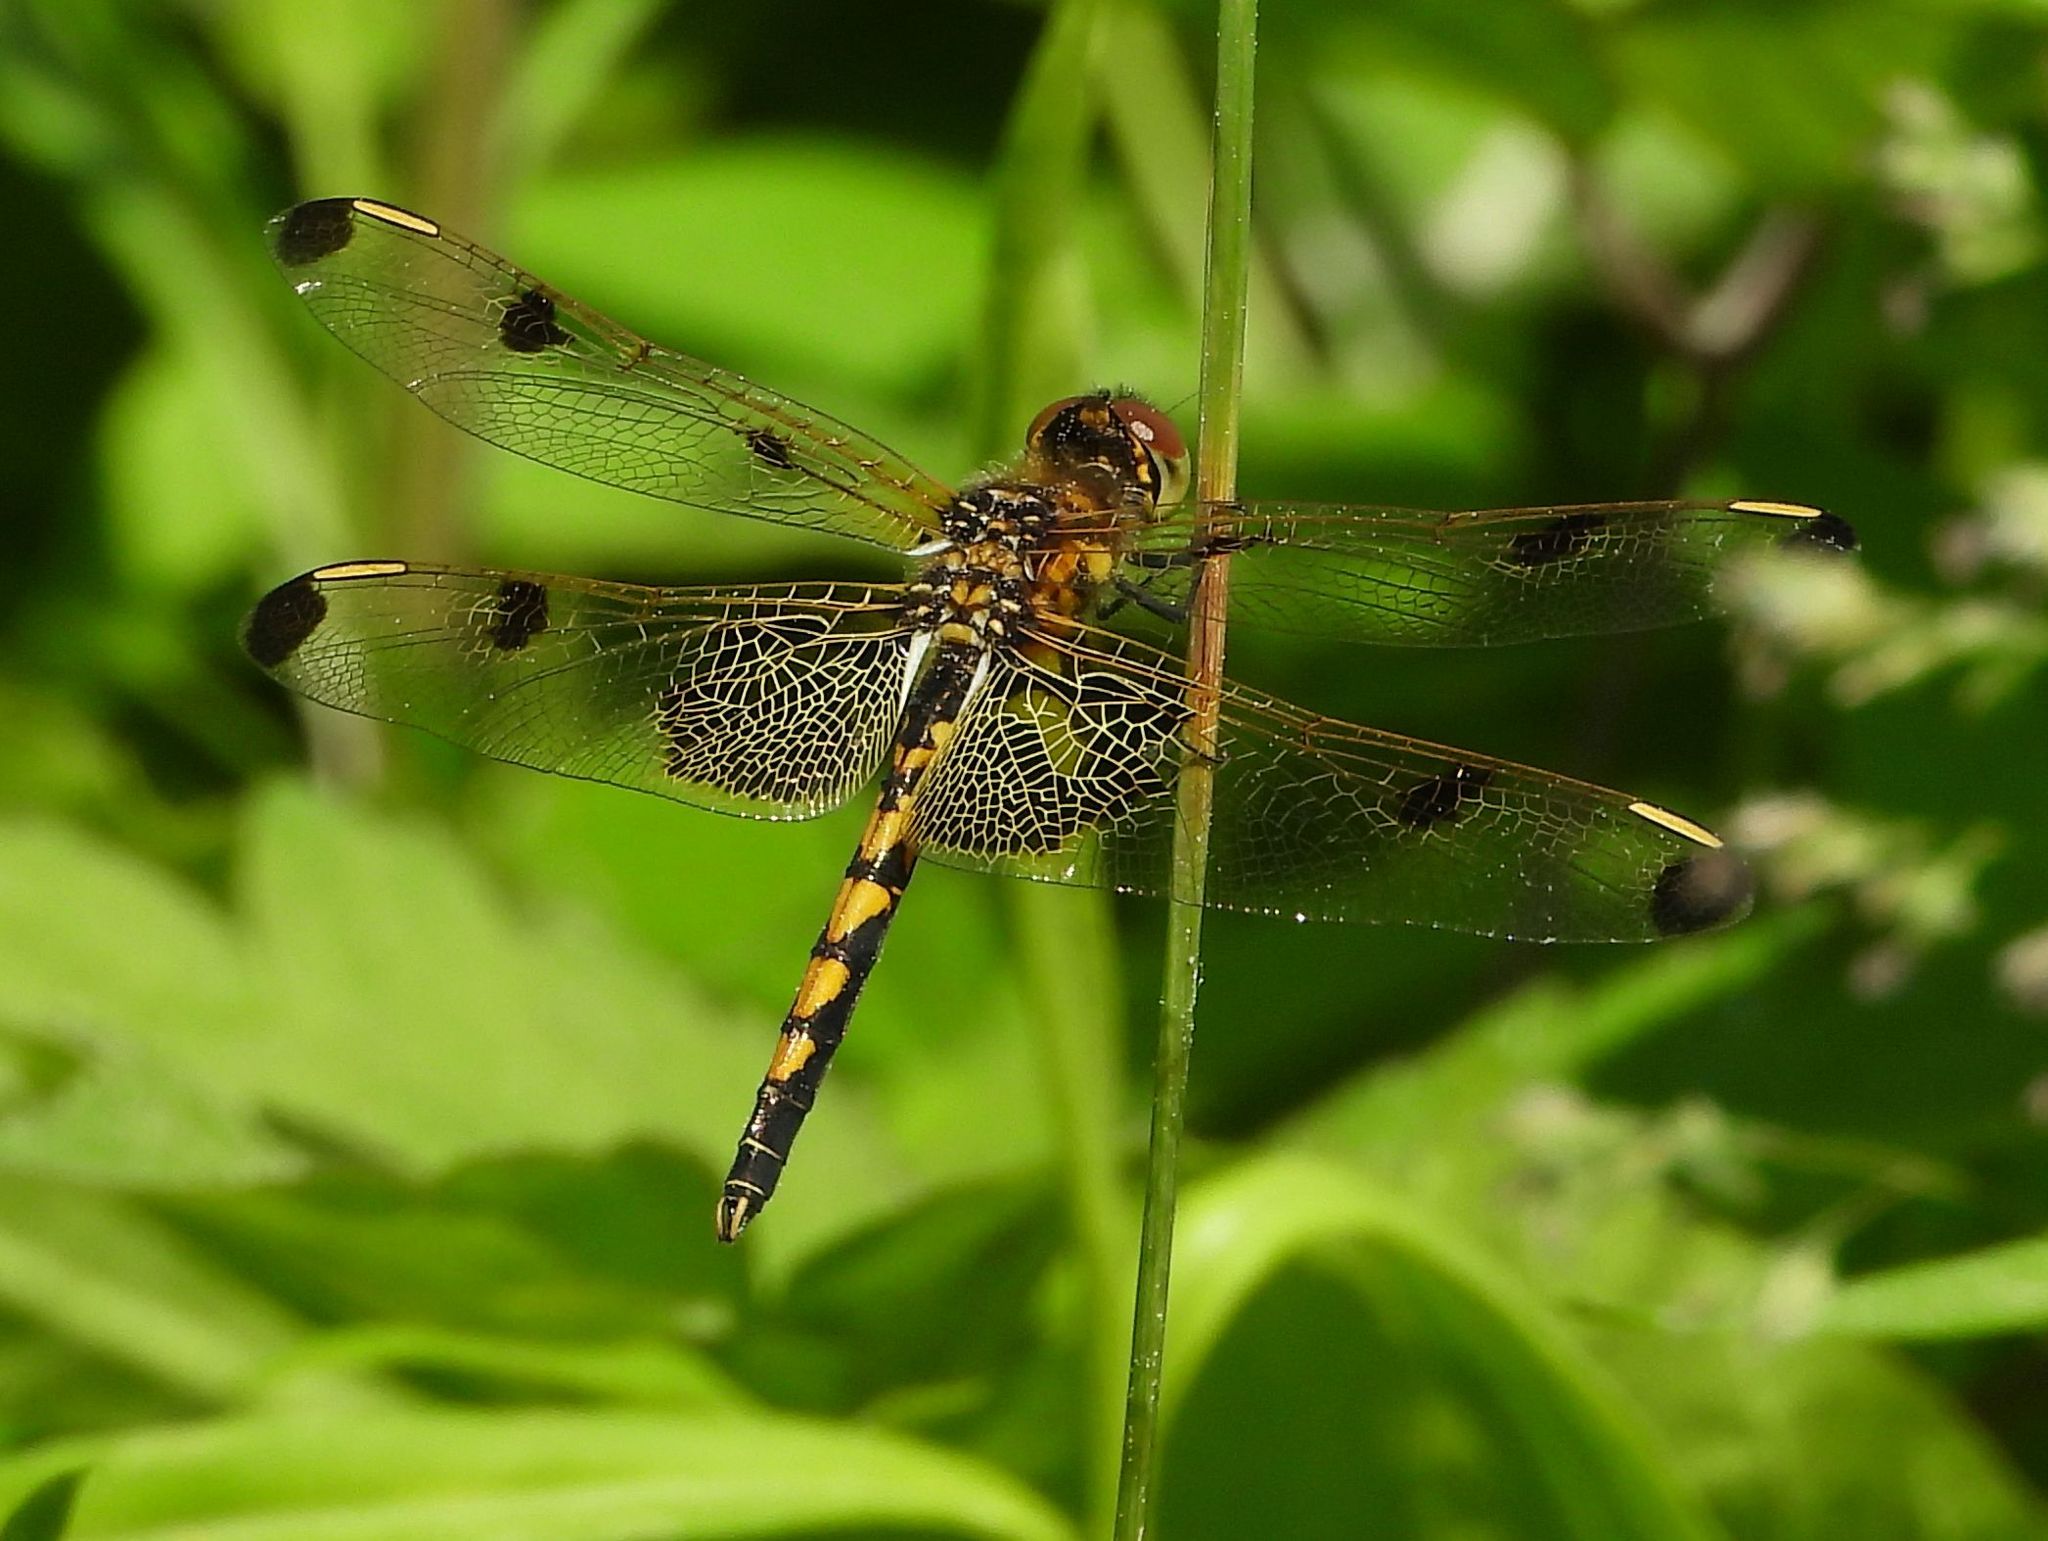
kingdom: Animalia
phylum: Arthropoda
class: Insecta
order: Odonata
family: Libellulidae
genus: Celithemis
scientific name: Celithemis elisa
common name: Calico pennant
